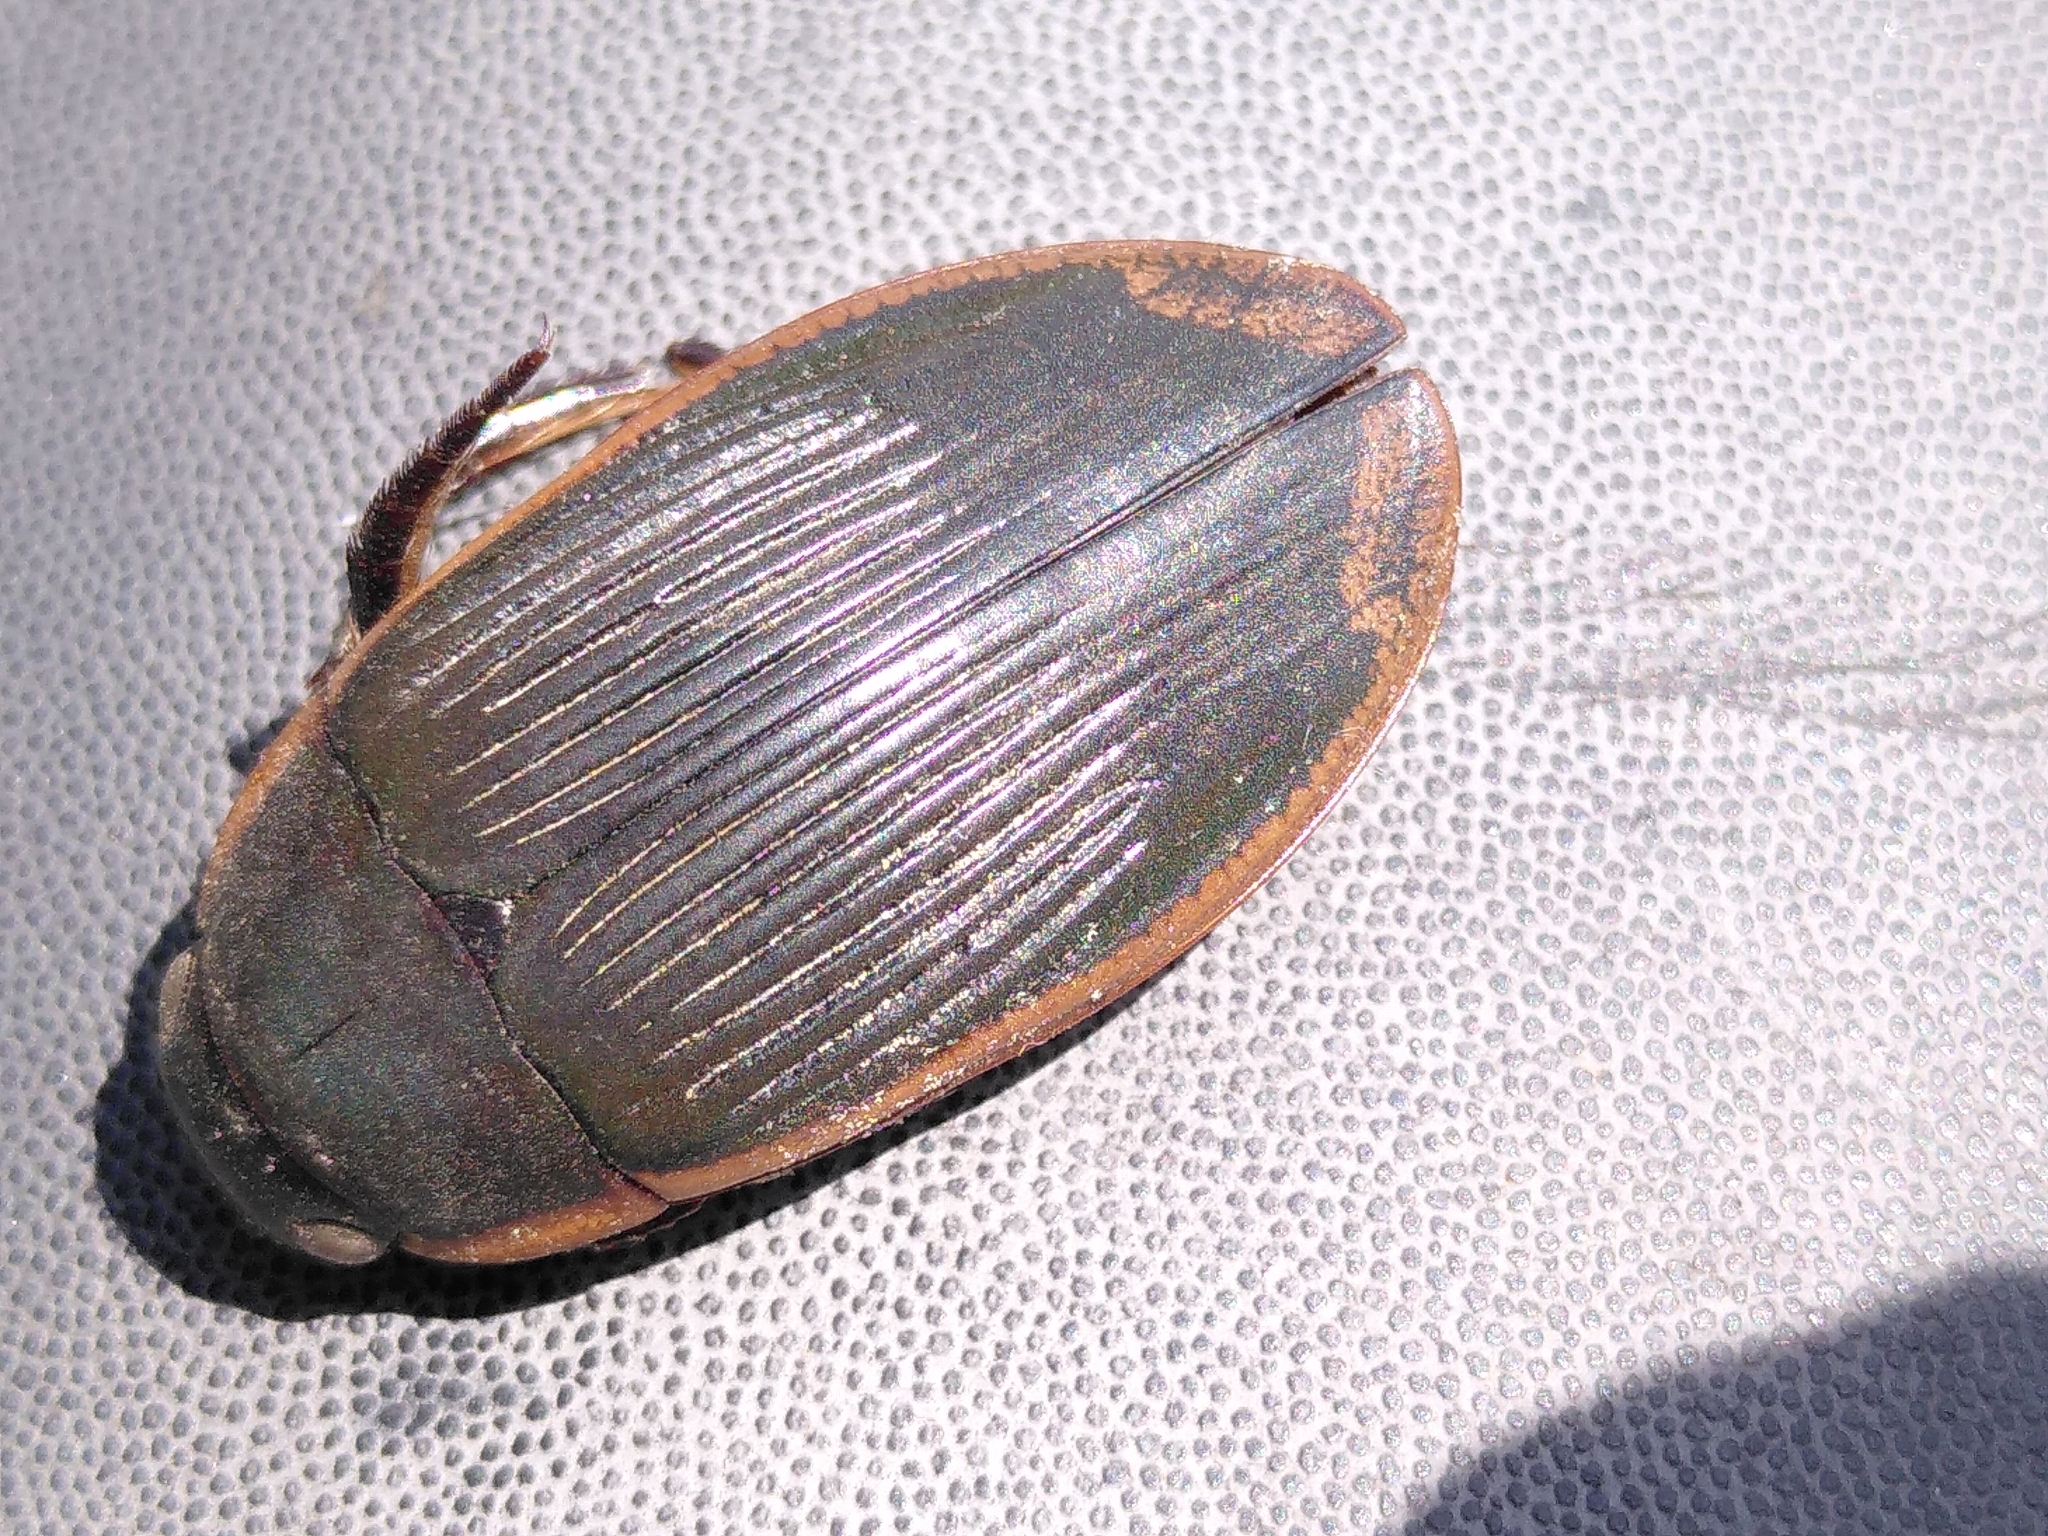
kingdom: Animalia
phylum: Arthropoda
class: Insecta
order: Coleoptera
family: Dytiscidae
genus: Dytiscus
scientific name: Dytiscus semisulcatus
